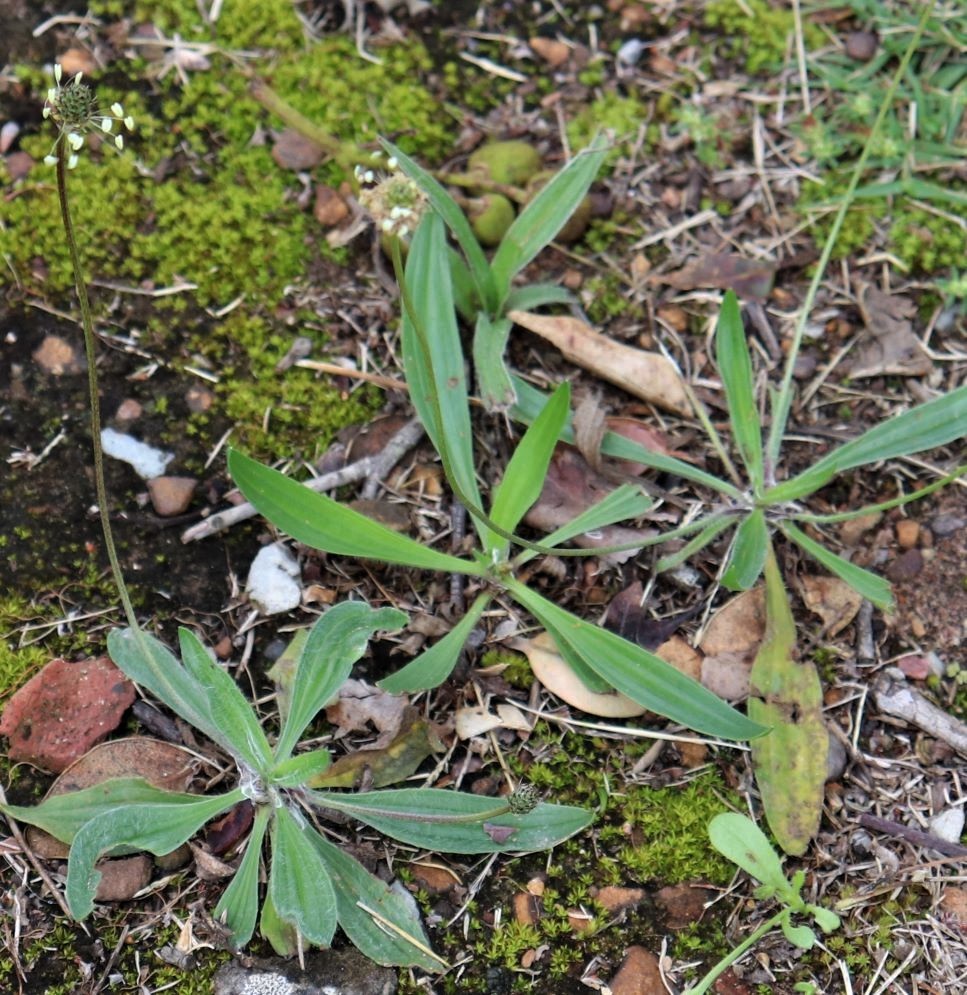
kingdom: Plantae
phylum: Tracheophyta
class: Magnoliopsida
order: Lamiales
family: Plantaginaceae
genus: Plantago
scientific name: Plantago lanceolata
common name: Ribwort plantain
